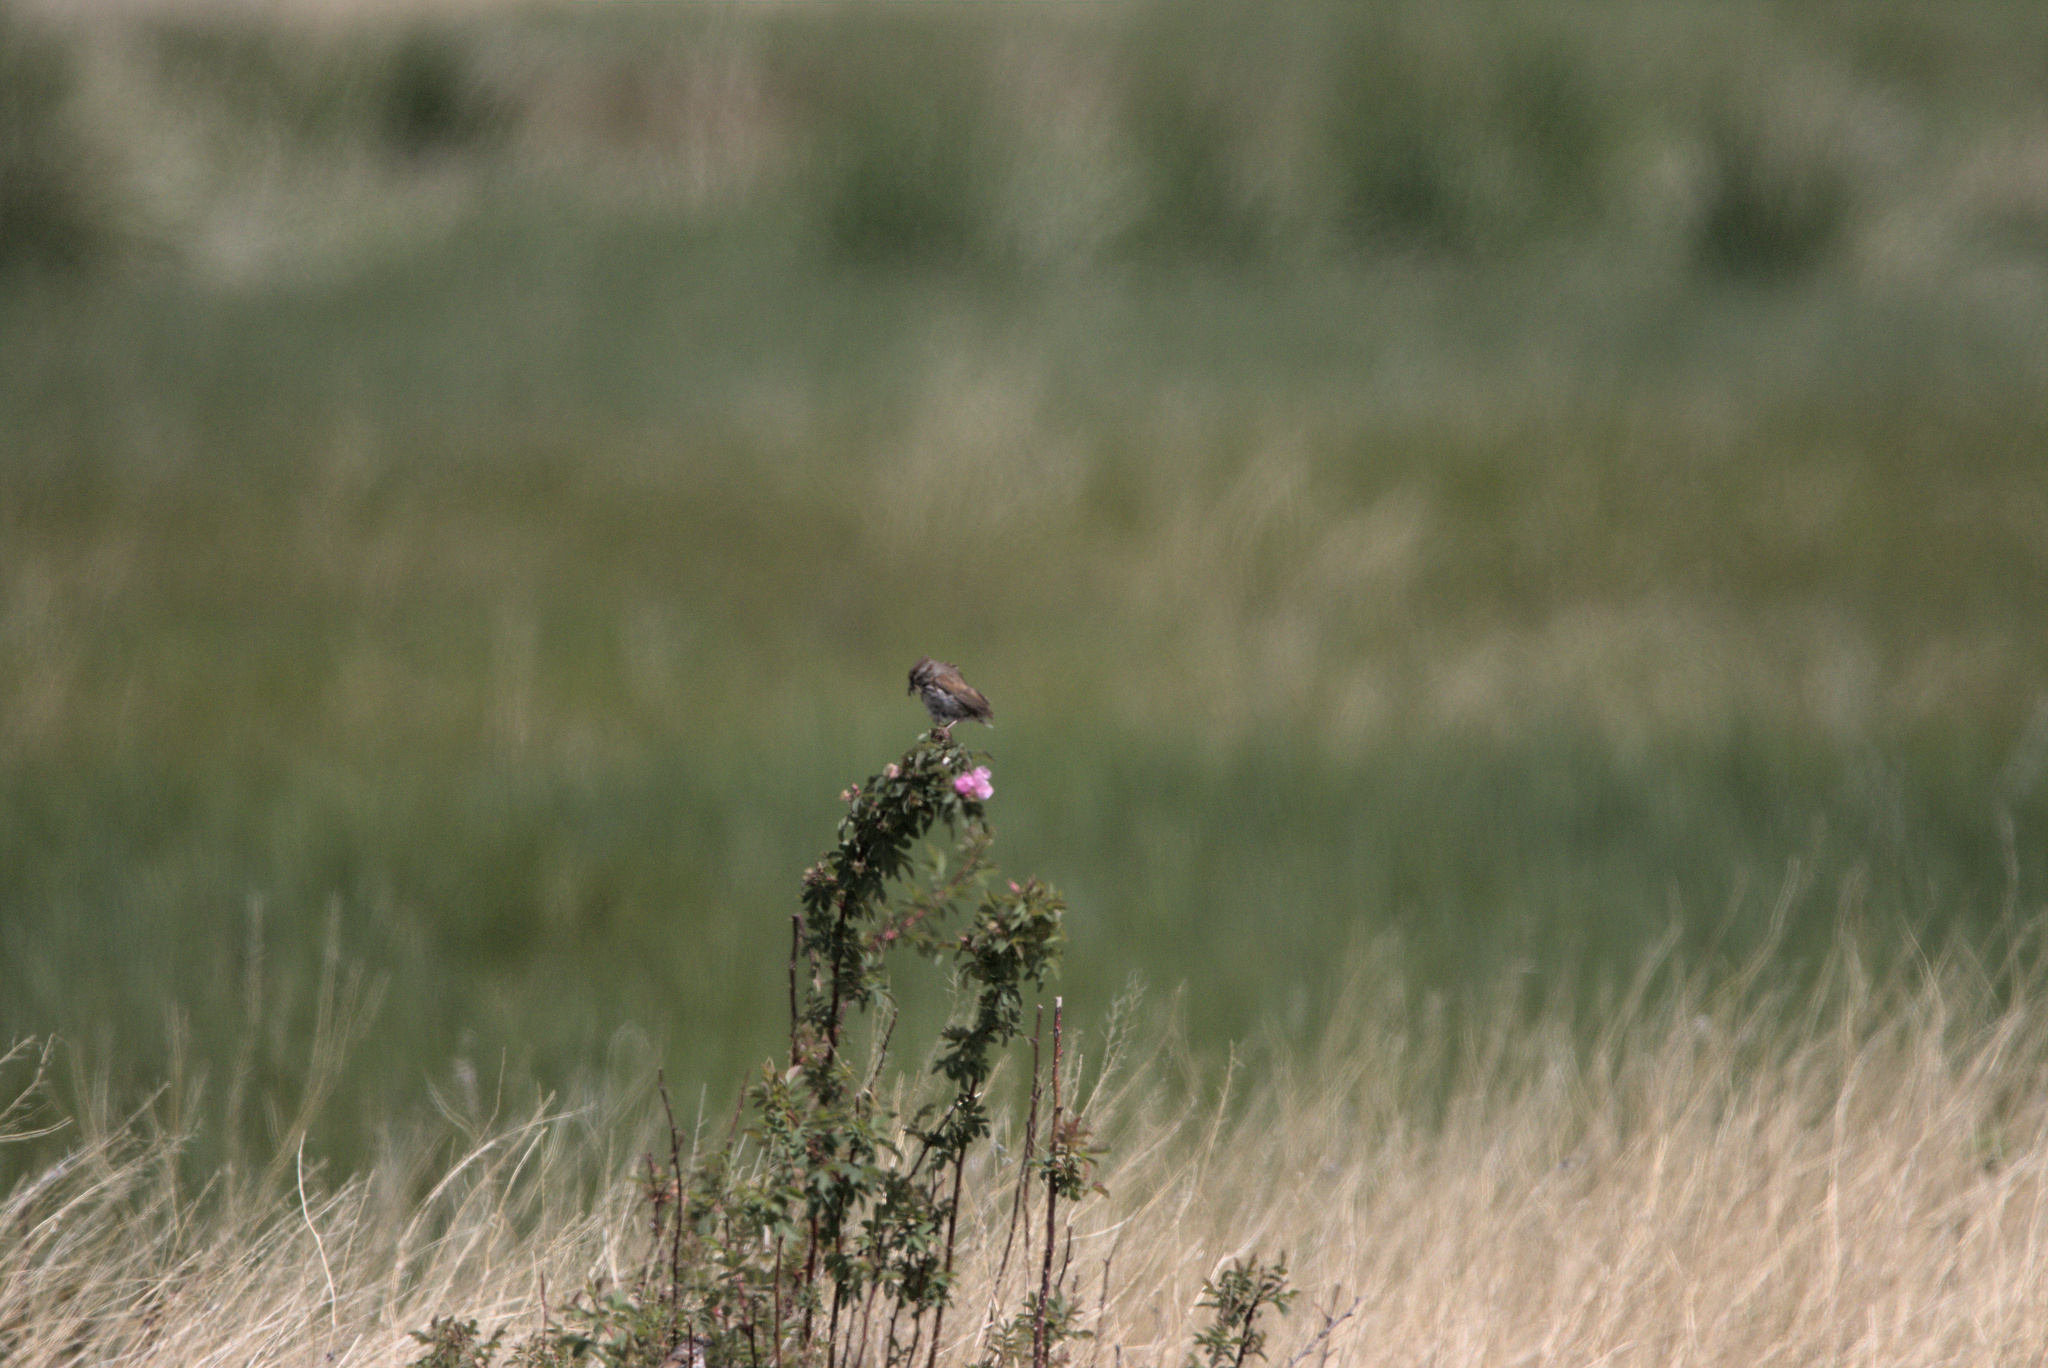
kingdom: Animalia
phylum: Chordata
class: Aves
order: Passeriformes
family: Passerellidae
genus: Melospiza
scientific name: Melospiza melodia
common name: Song sparrow
